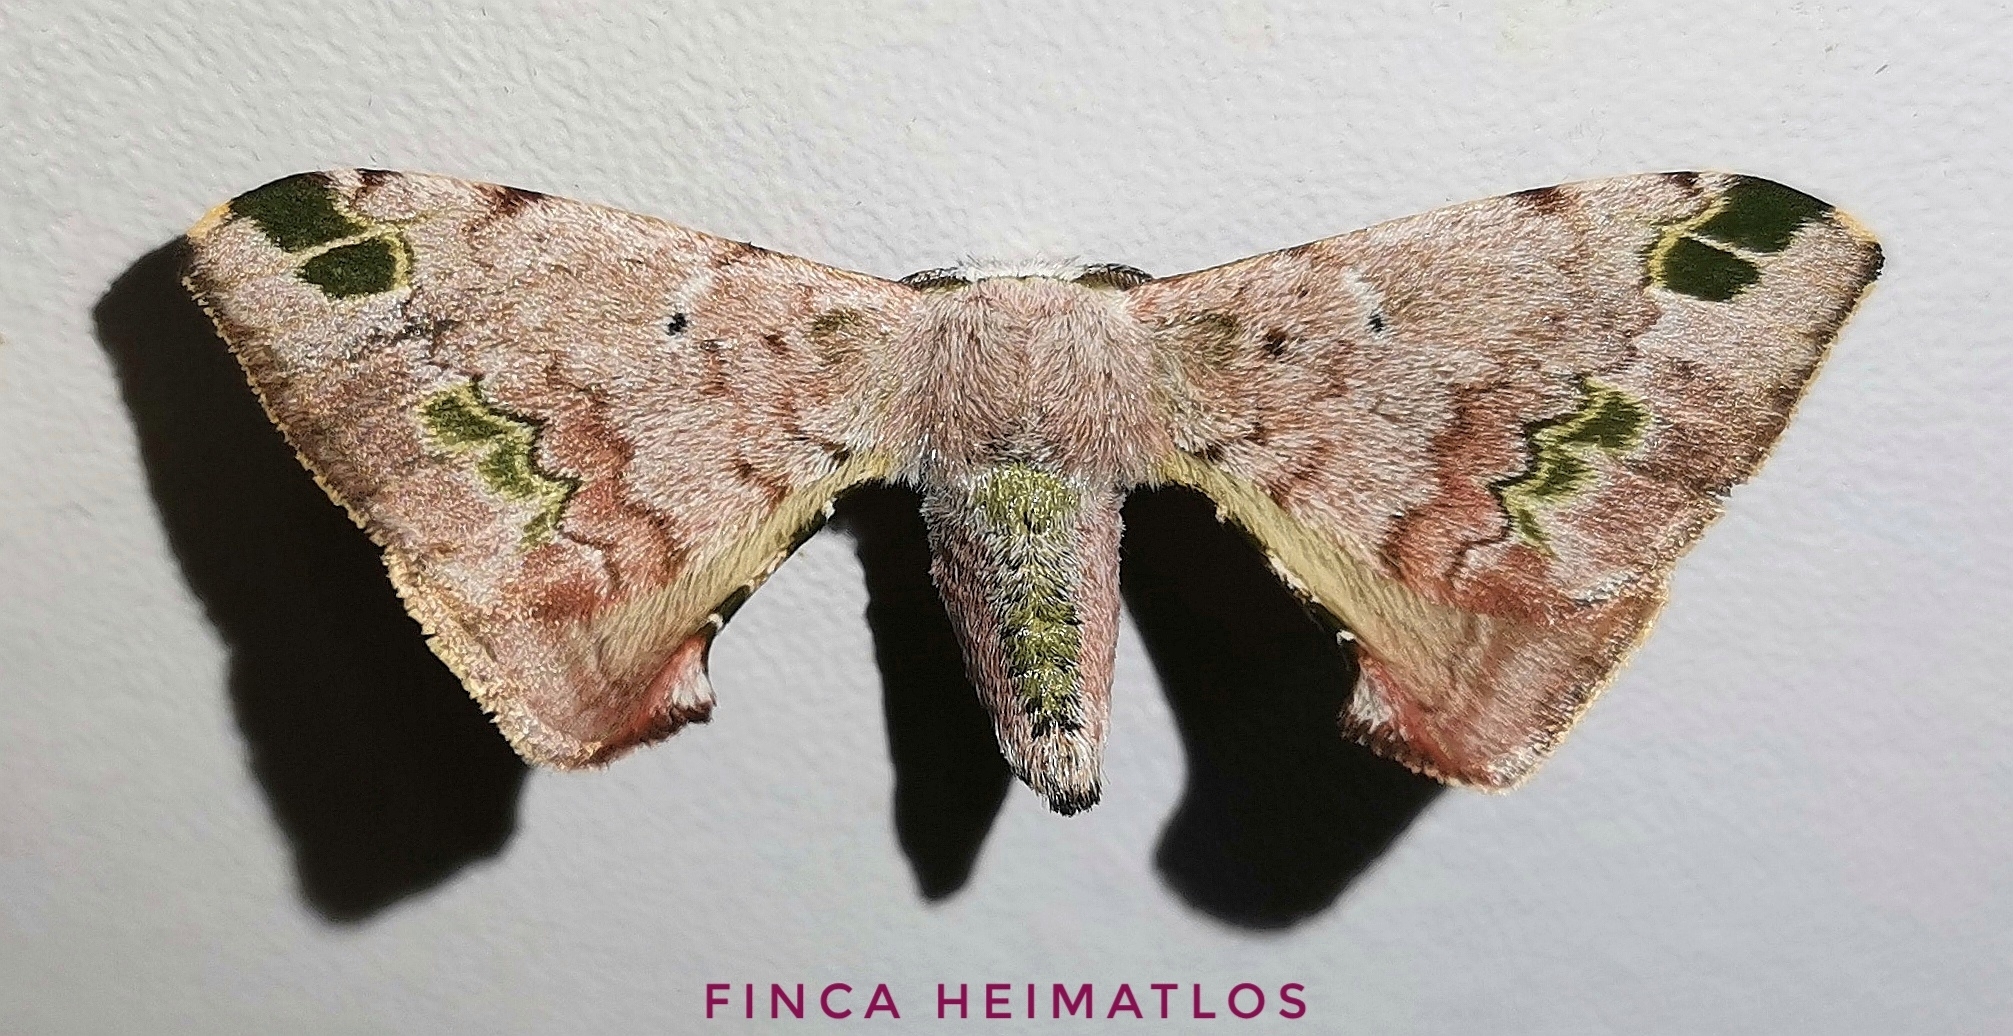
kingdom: Animalia
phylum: Arthropoda
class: Insecta
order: Lepidoptera
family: Bombycidae
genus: Anticla
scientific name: Anticla antica
